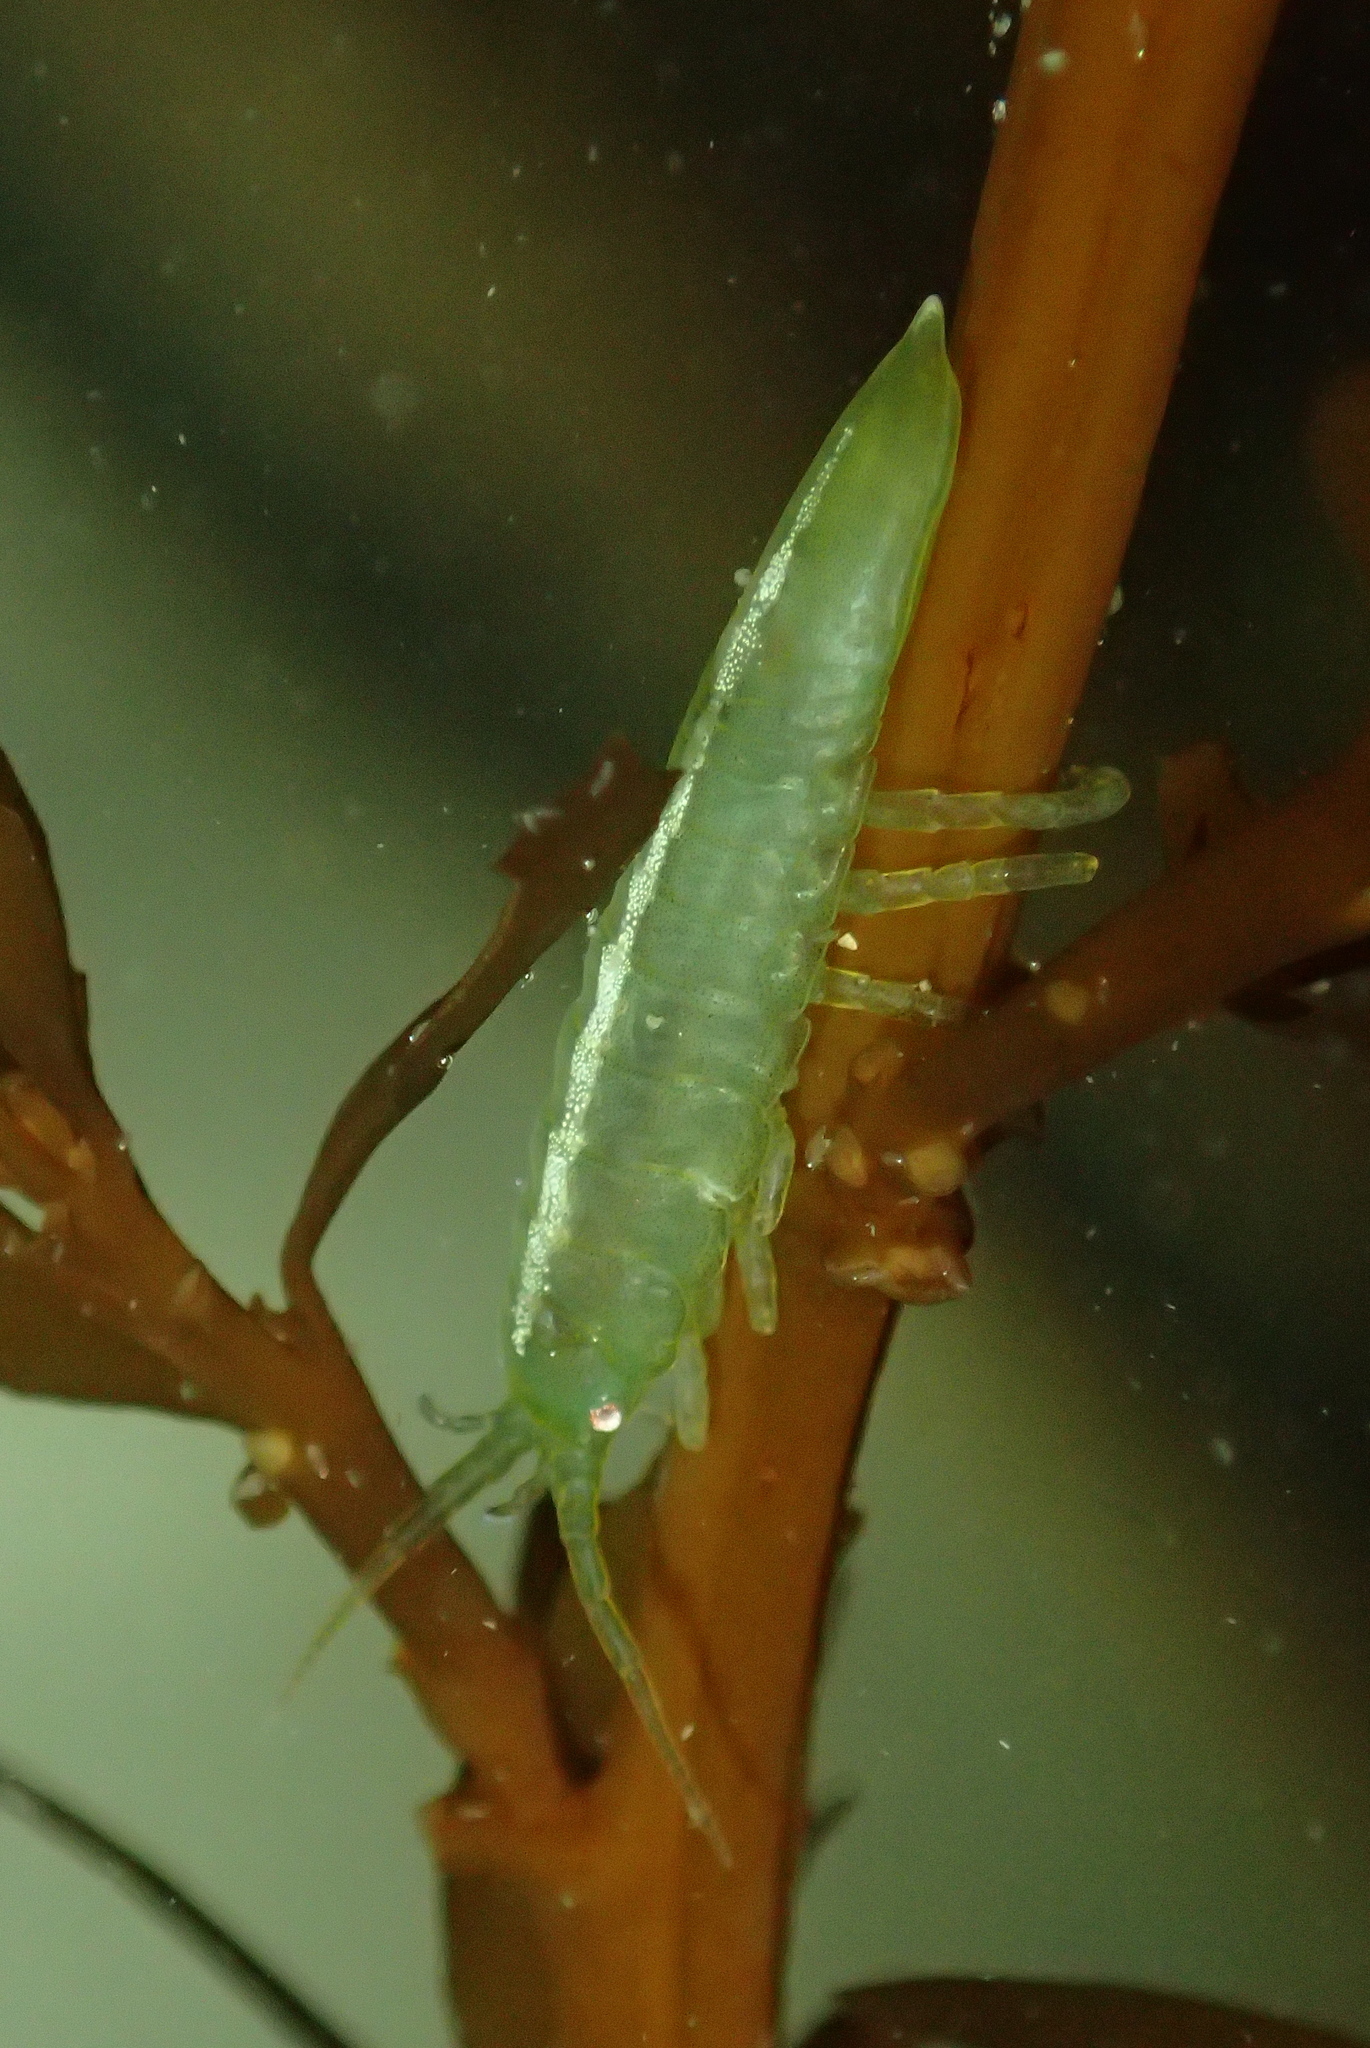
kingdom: Animalia
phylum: Arthropoda
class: Malacostraca
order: Isopoda
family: Idoteidae
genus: Idotea
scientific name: Idotea granulosa
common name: Granular marine isopod
